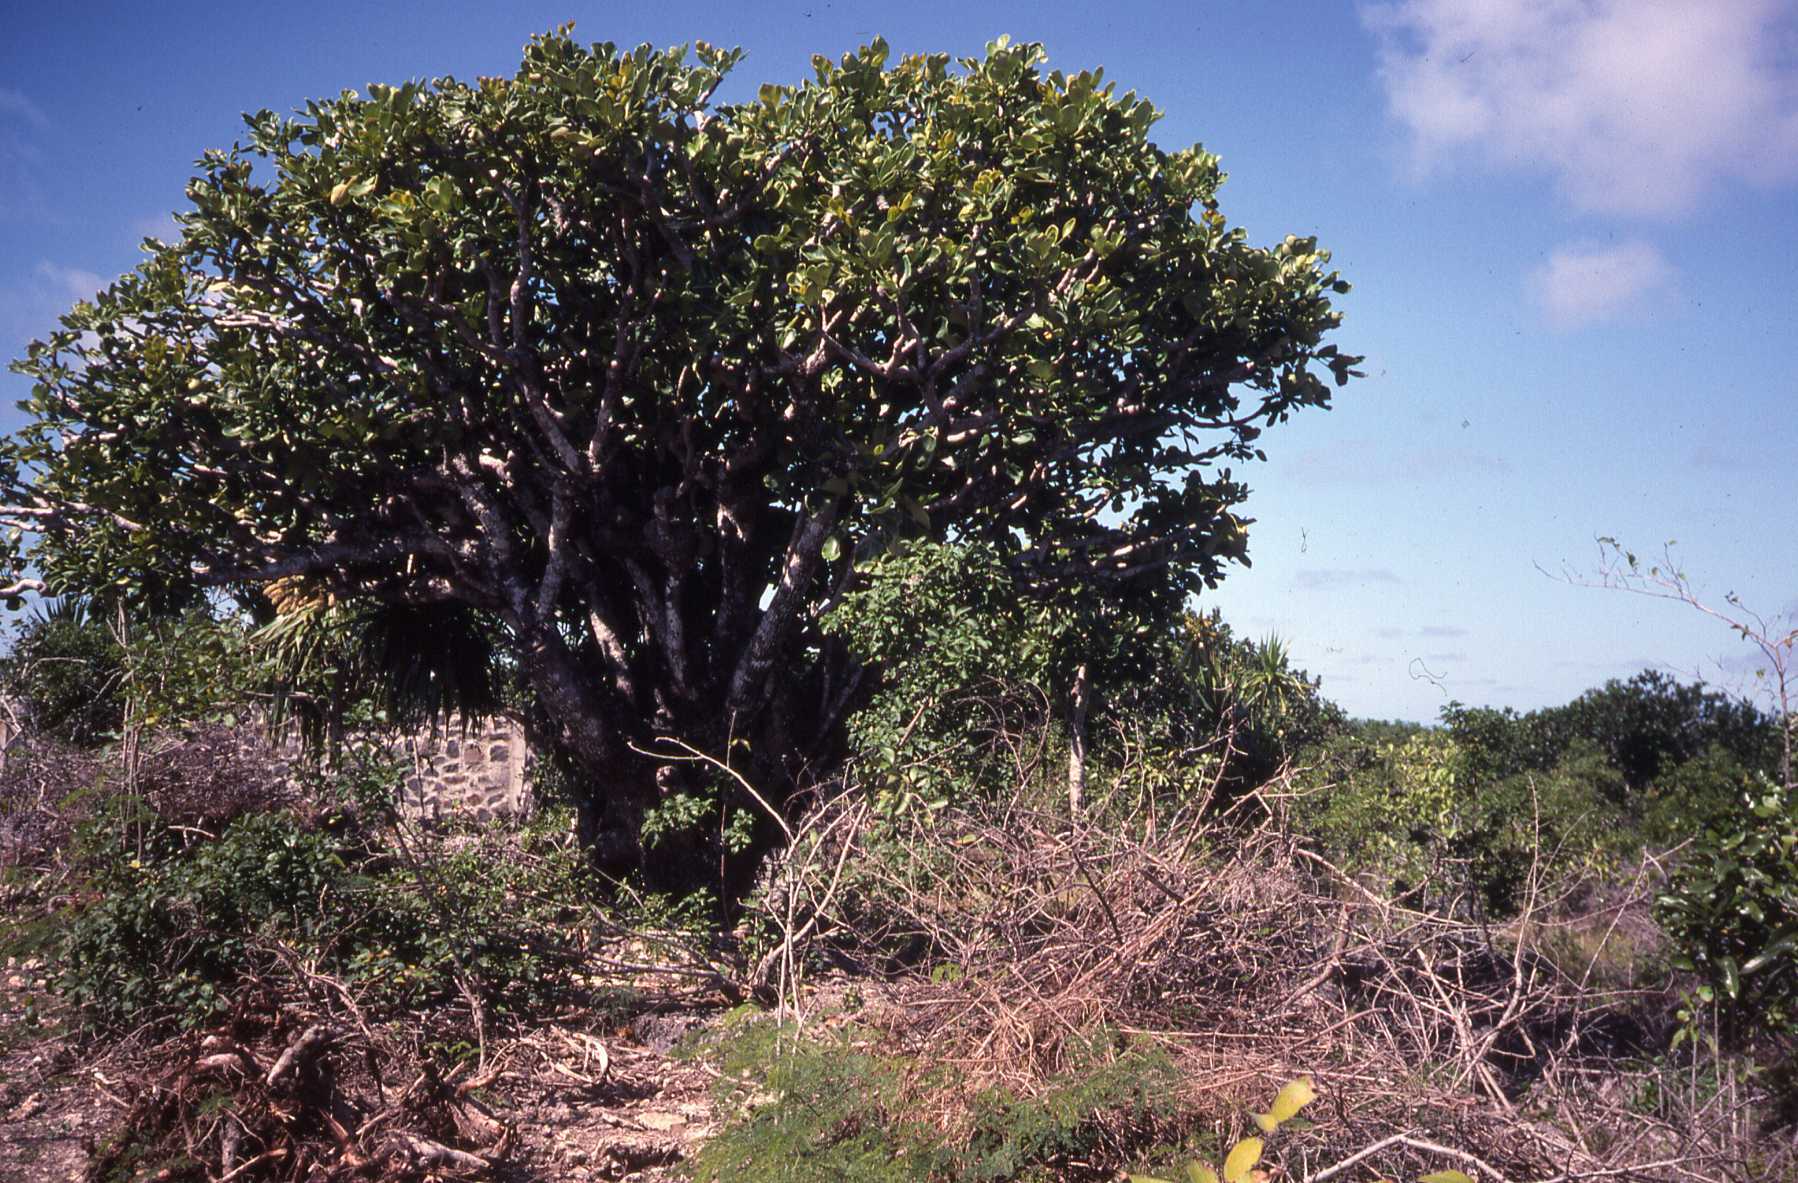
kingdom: Plantae
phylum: Tracheophyta
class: Magnoliopsida
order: Apiales
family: Araliaceae
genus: Polyscias
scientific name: Polyscias maraisiana
